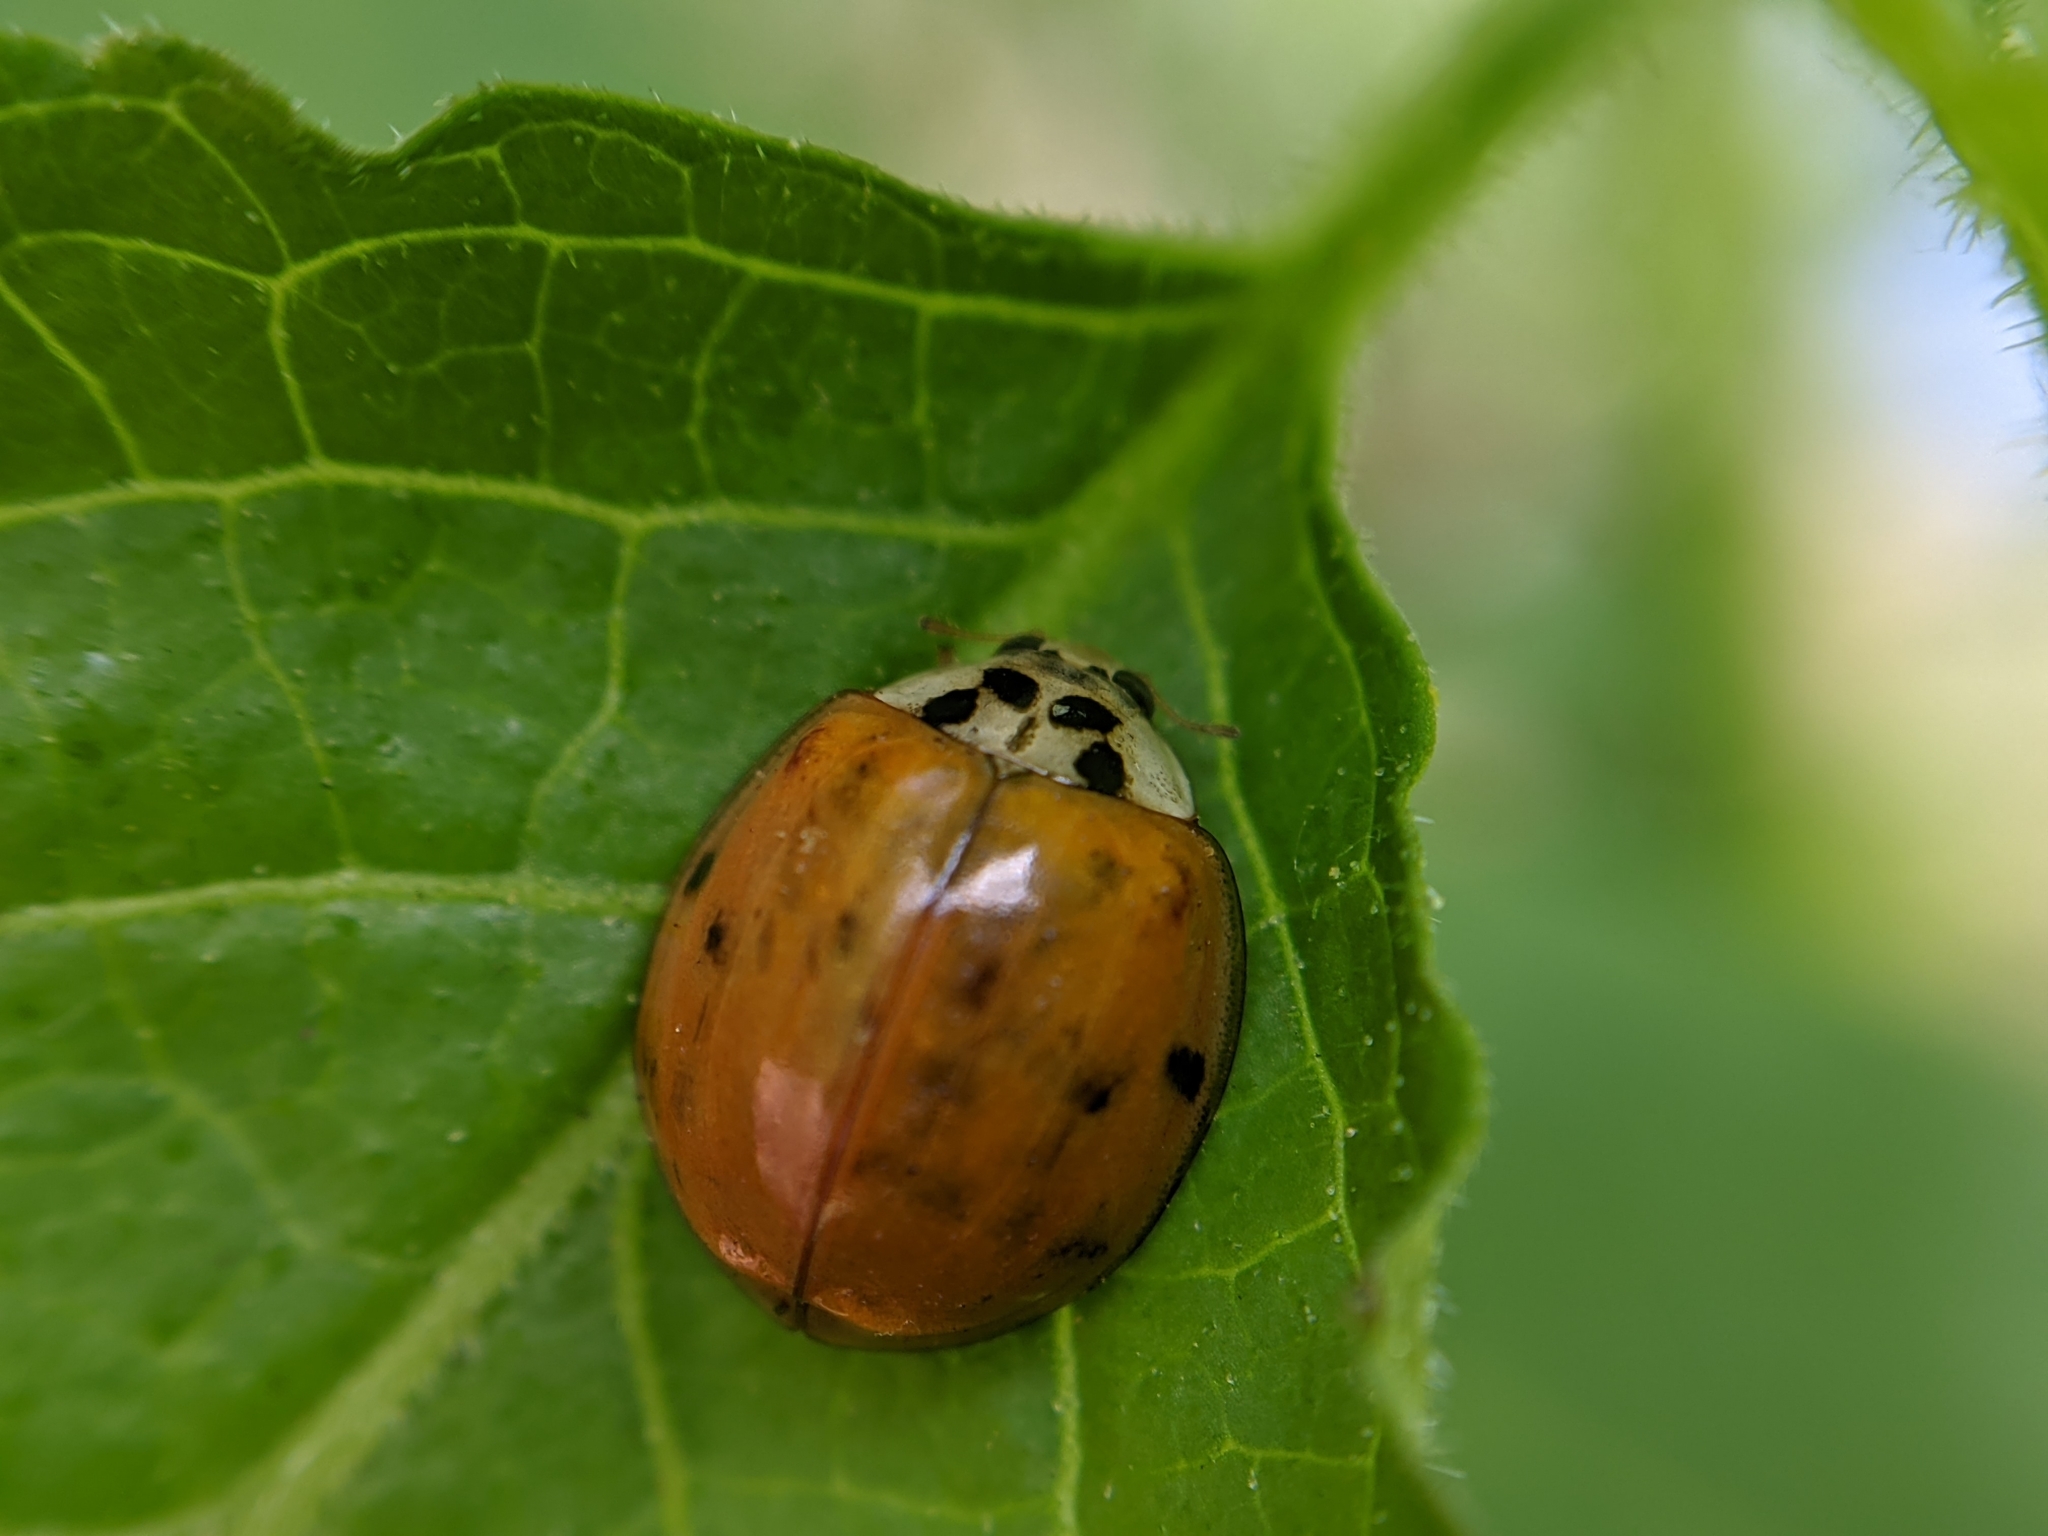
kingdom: Animalia
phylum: Arthropoda
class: Insecta
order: Coleoptera
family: Coccinellidae
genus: Harmonia
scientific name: Harmonia axyridis
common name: Harlequin ladybird
